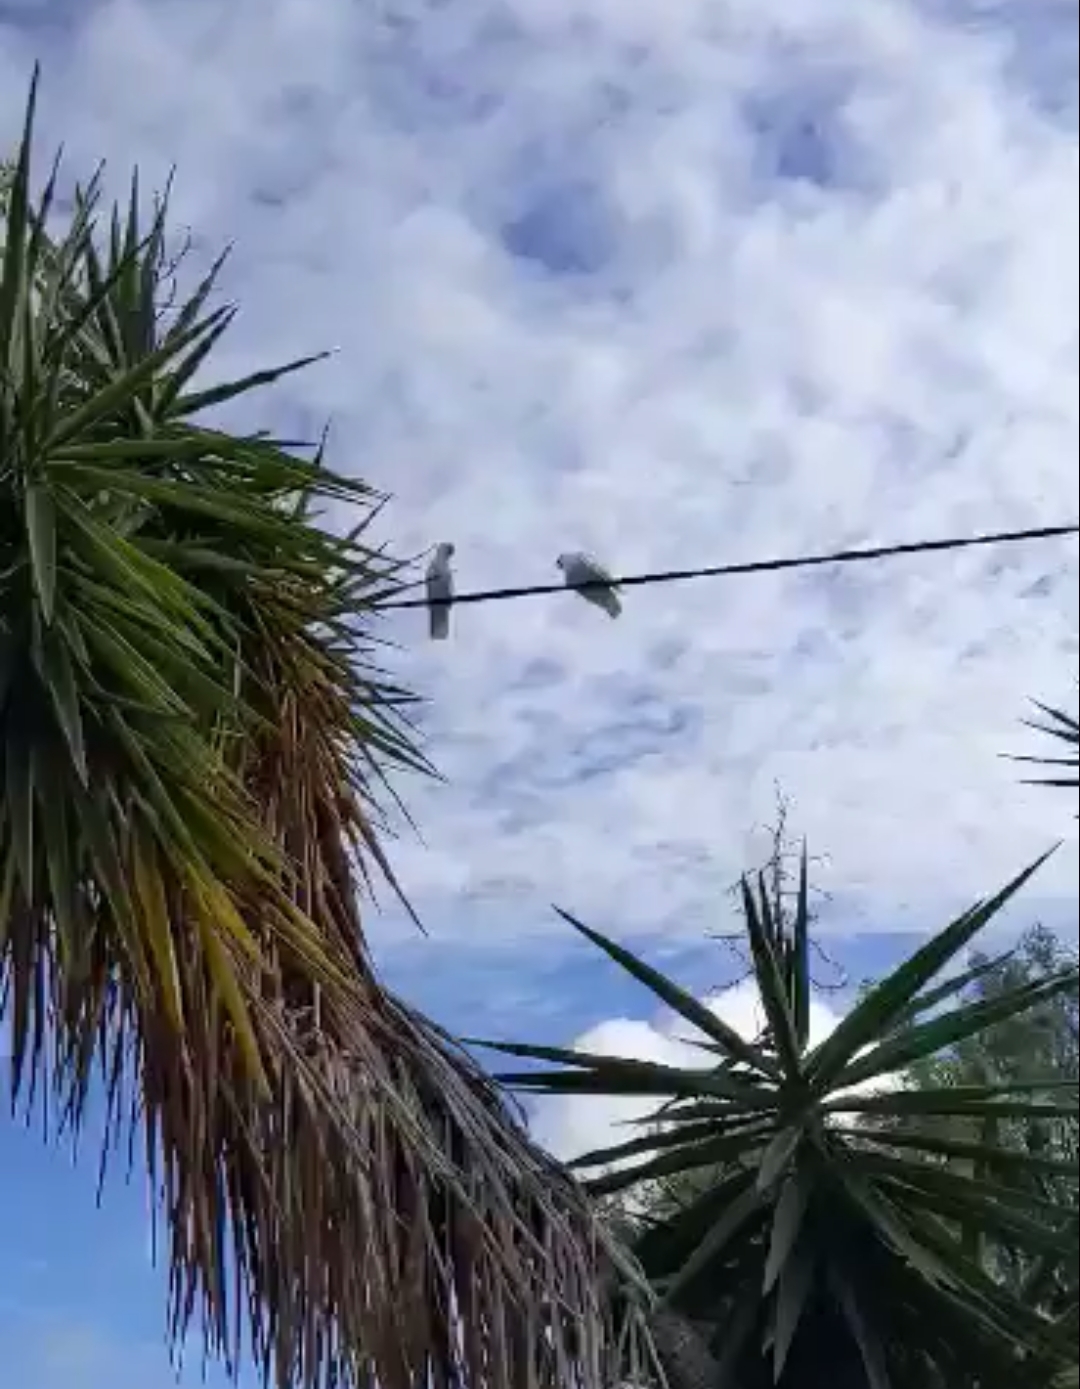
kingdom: Animalia
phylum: Chordata
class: Aves
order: Psittaciformes
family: Psittacidae
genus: Cacatua
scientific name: Cacatua galerita
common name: Sulphur-crested cockatoo
